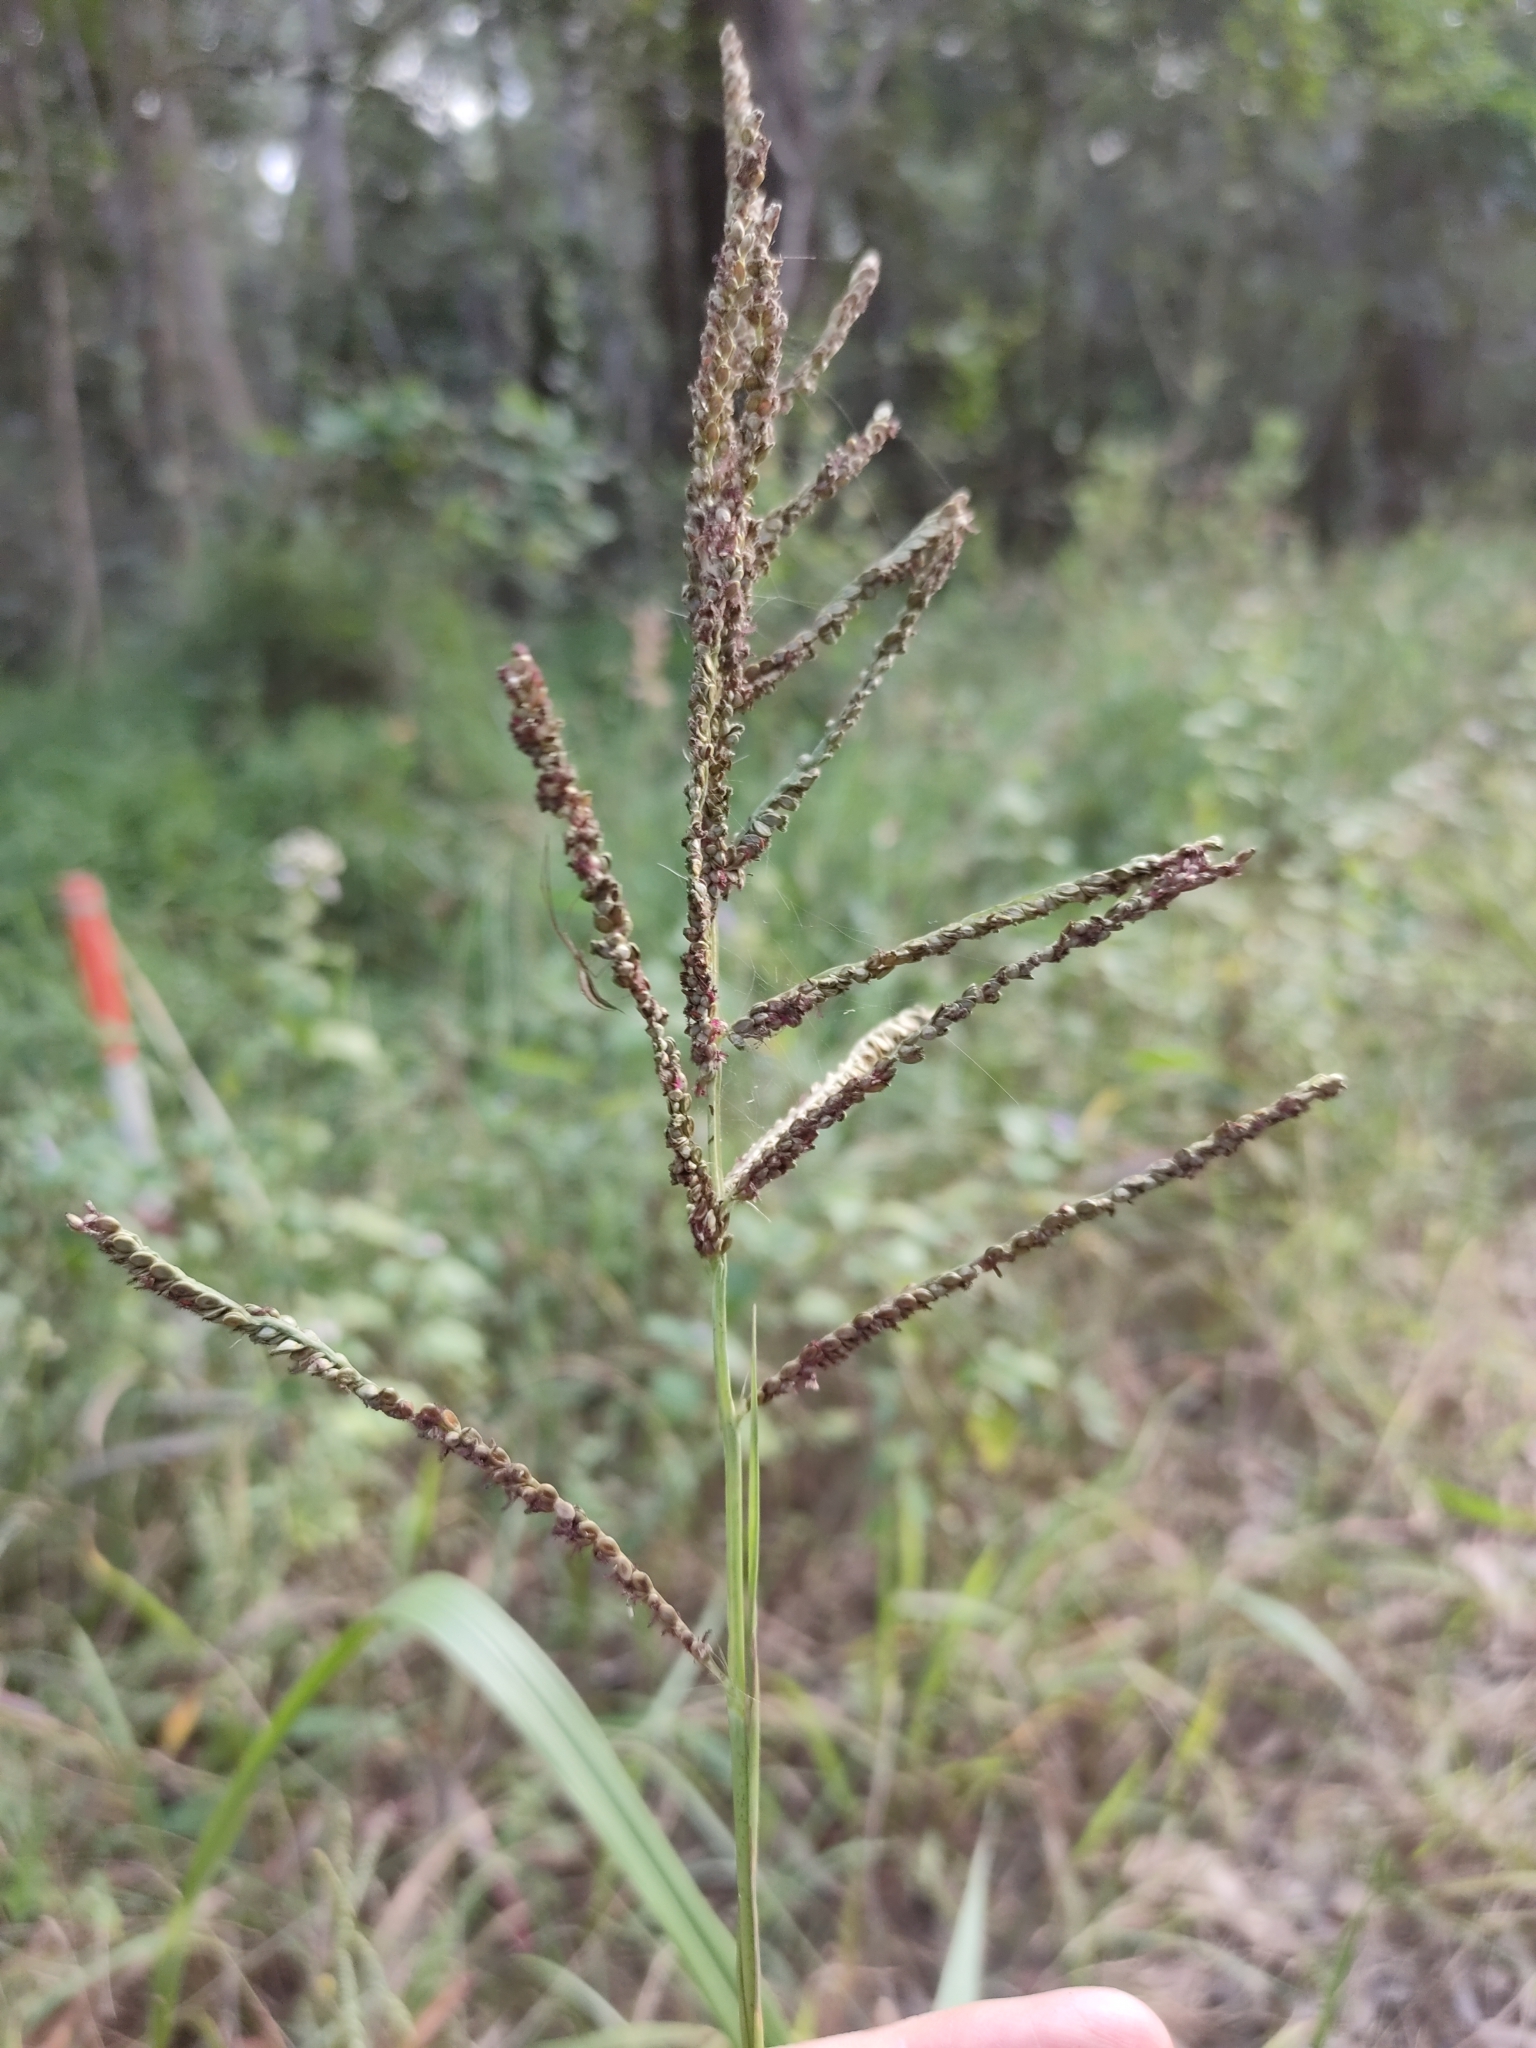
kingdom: Plantae
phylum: Tracheophyta
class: Liliopsida
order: Poales
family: Poaceae
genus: Paspalum
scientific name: Paspalum plicatulum
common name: Top paspalum
